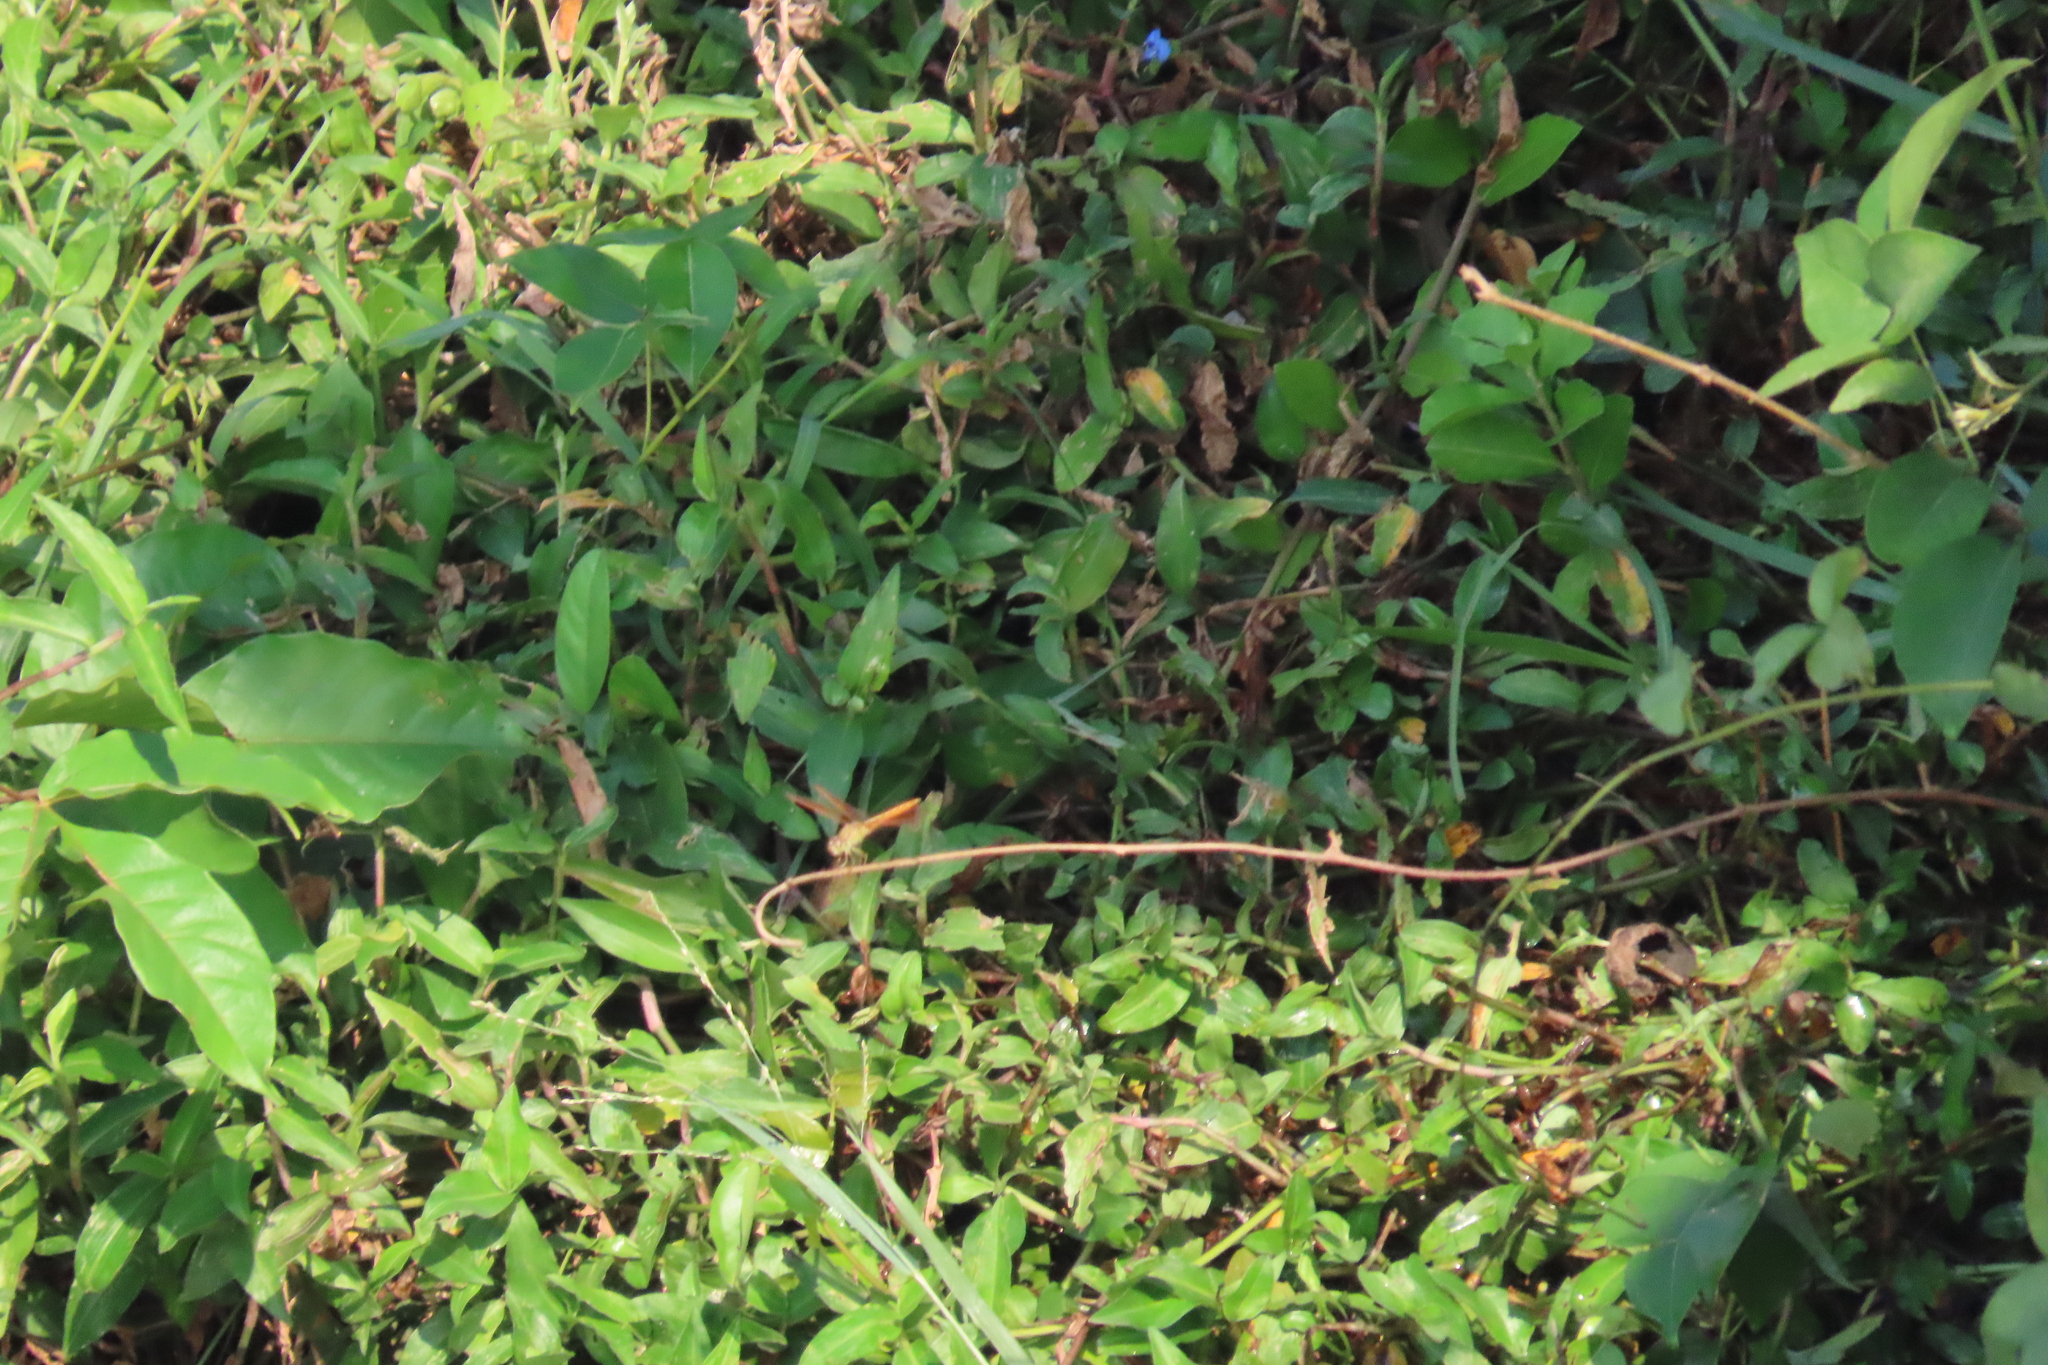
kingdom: Animalia
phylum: Arthropoda
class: Insecta
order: Odonata
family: Libellulidae
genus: Brachythemis
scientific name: Brachythemis contaminata
